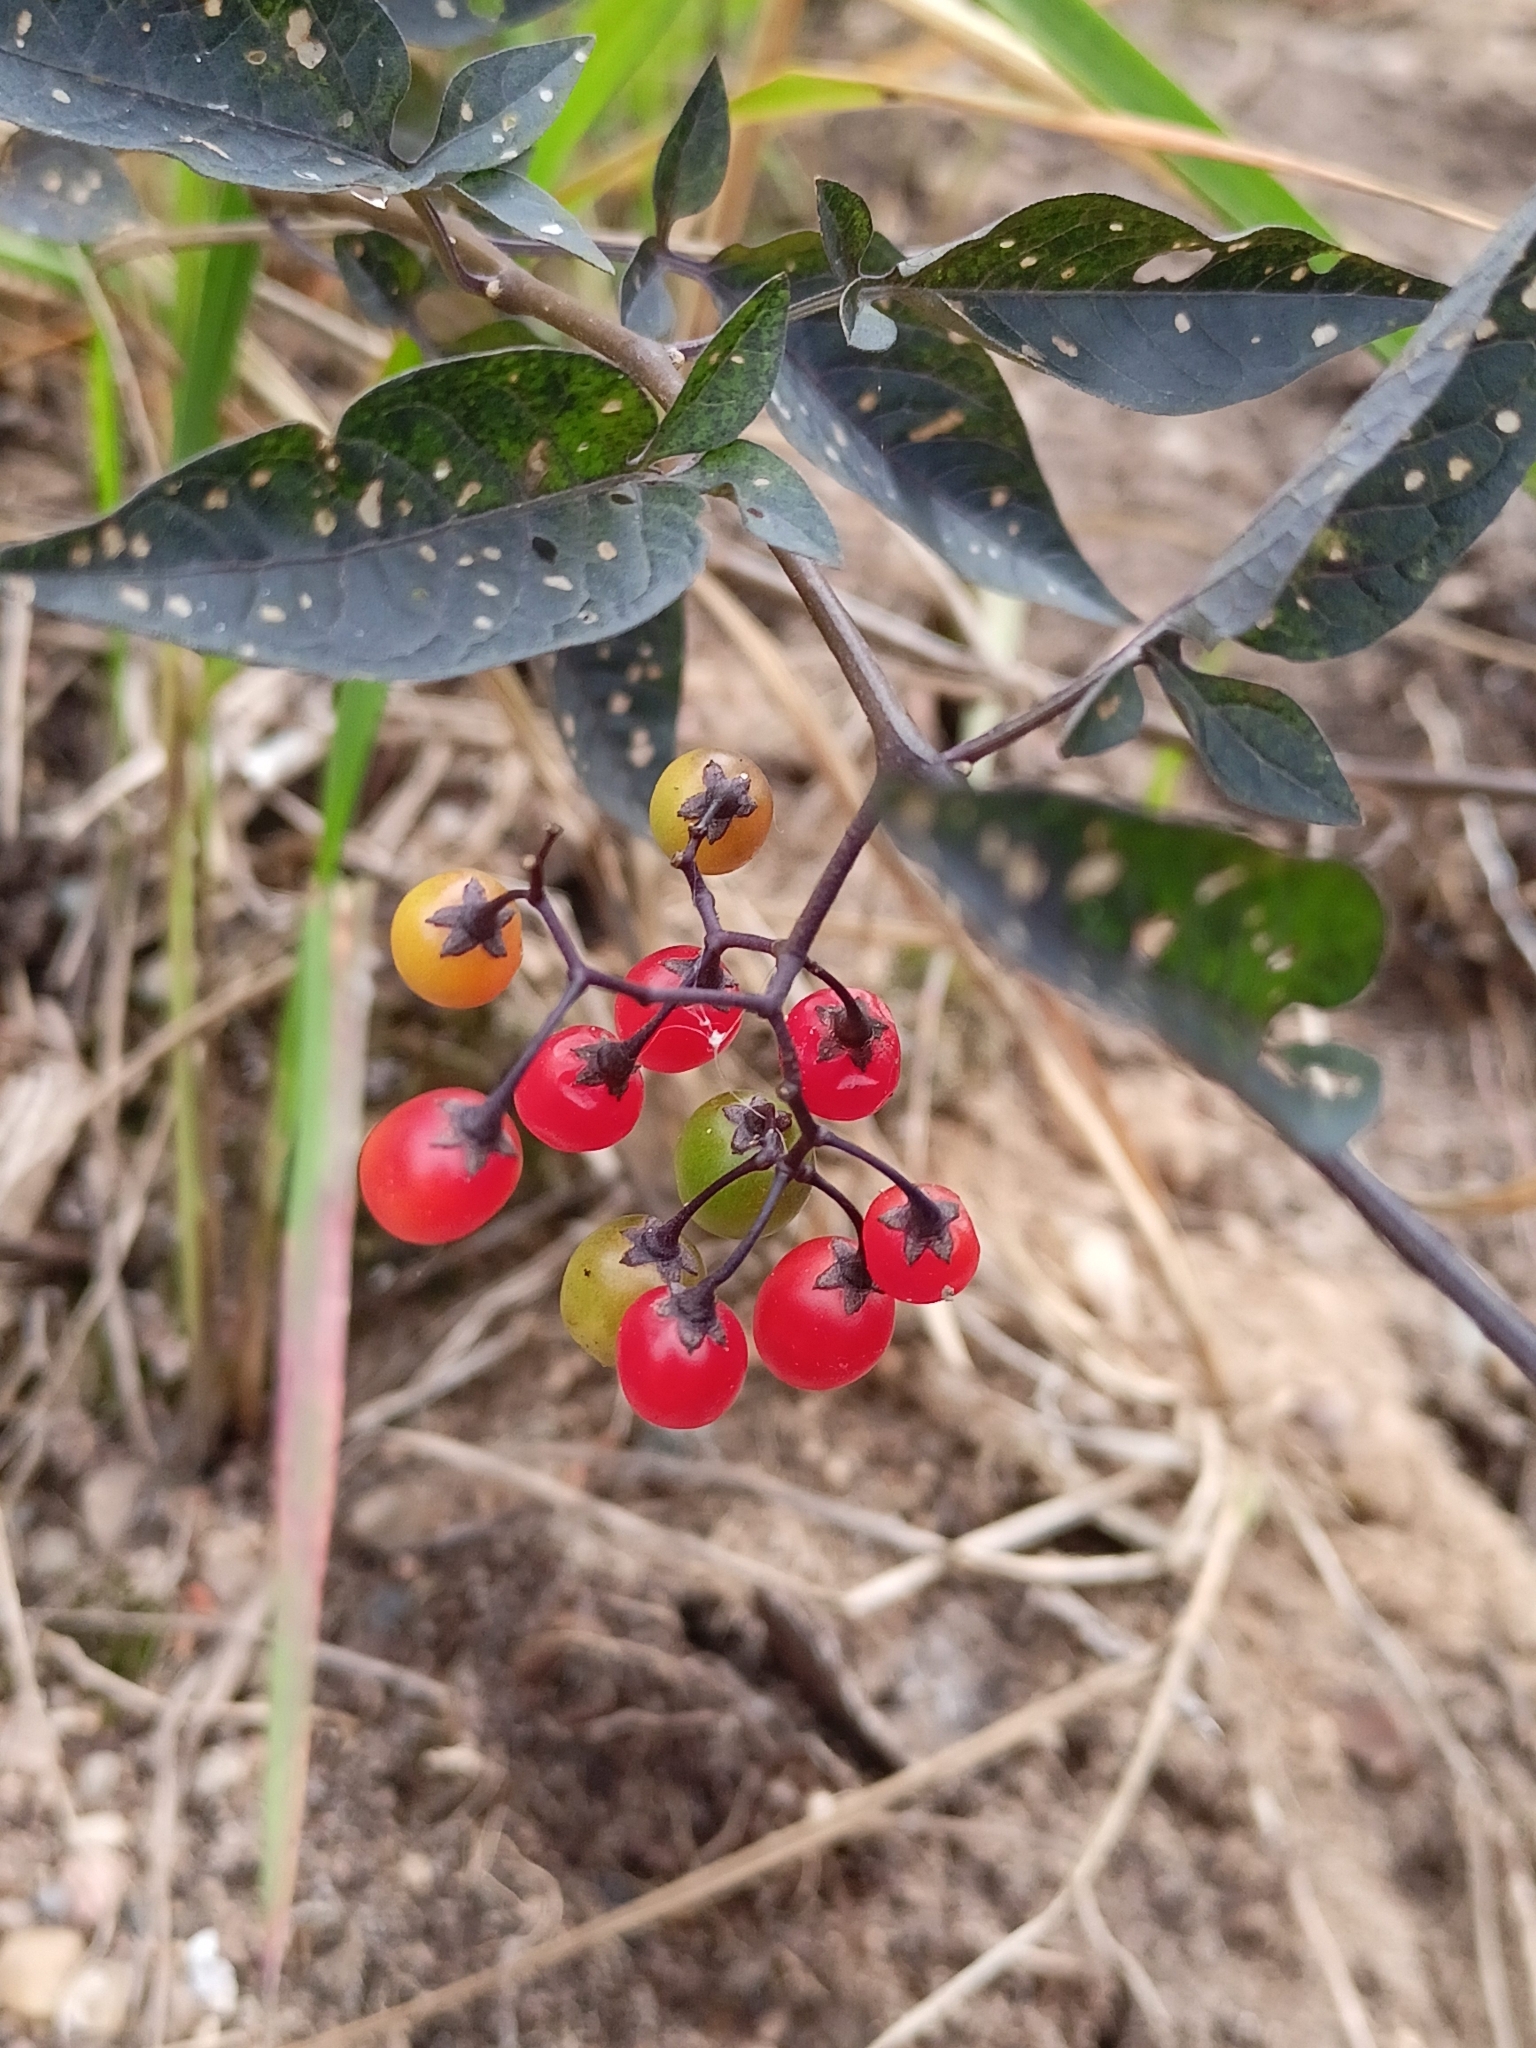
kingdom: Plantae
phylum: Tracheophyta
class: Magnoliopsida
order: Solanales
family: Solanaceae
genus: Solanum
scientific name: Solanum dulcamara
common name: Climbing nightshade
